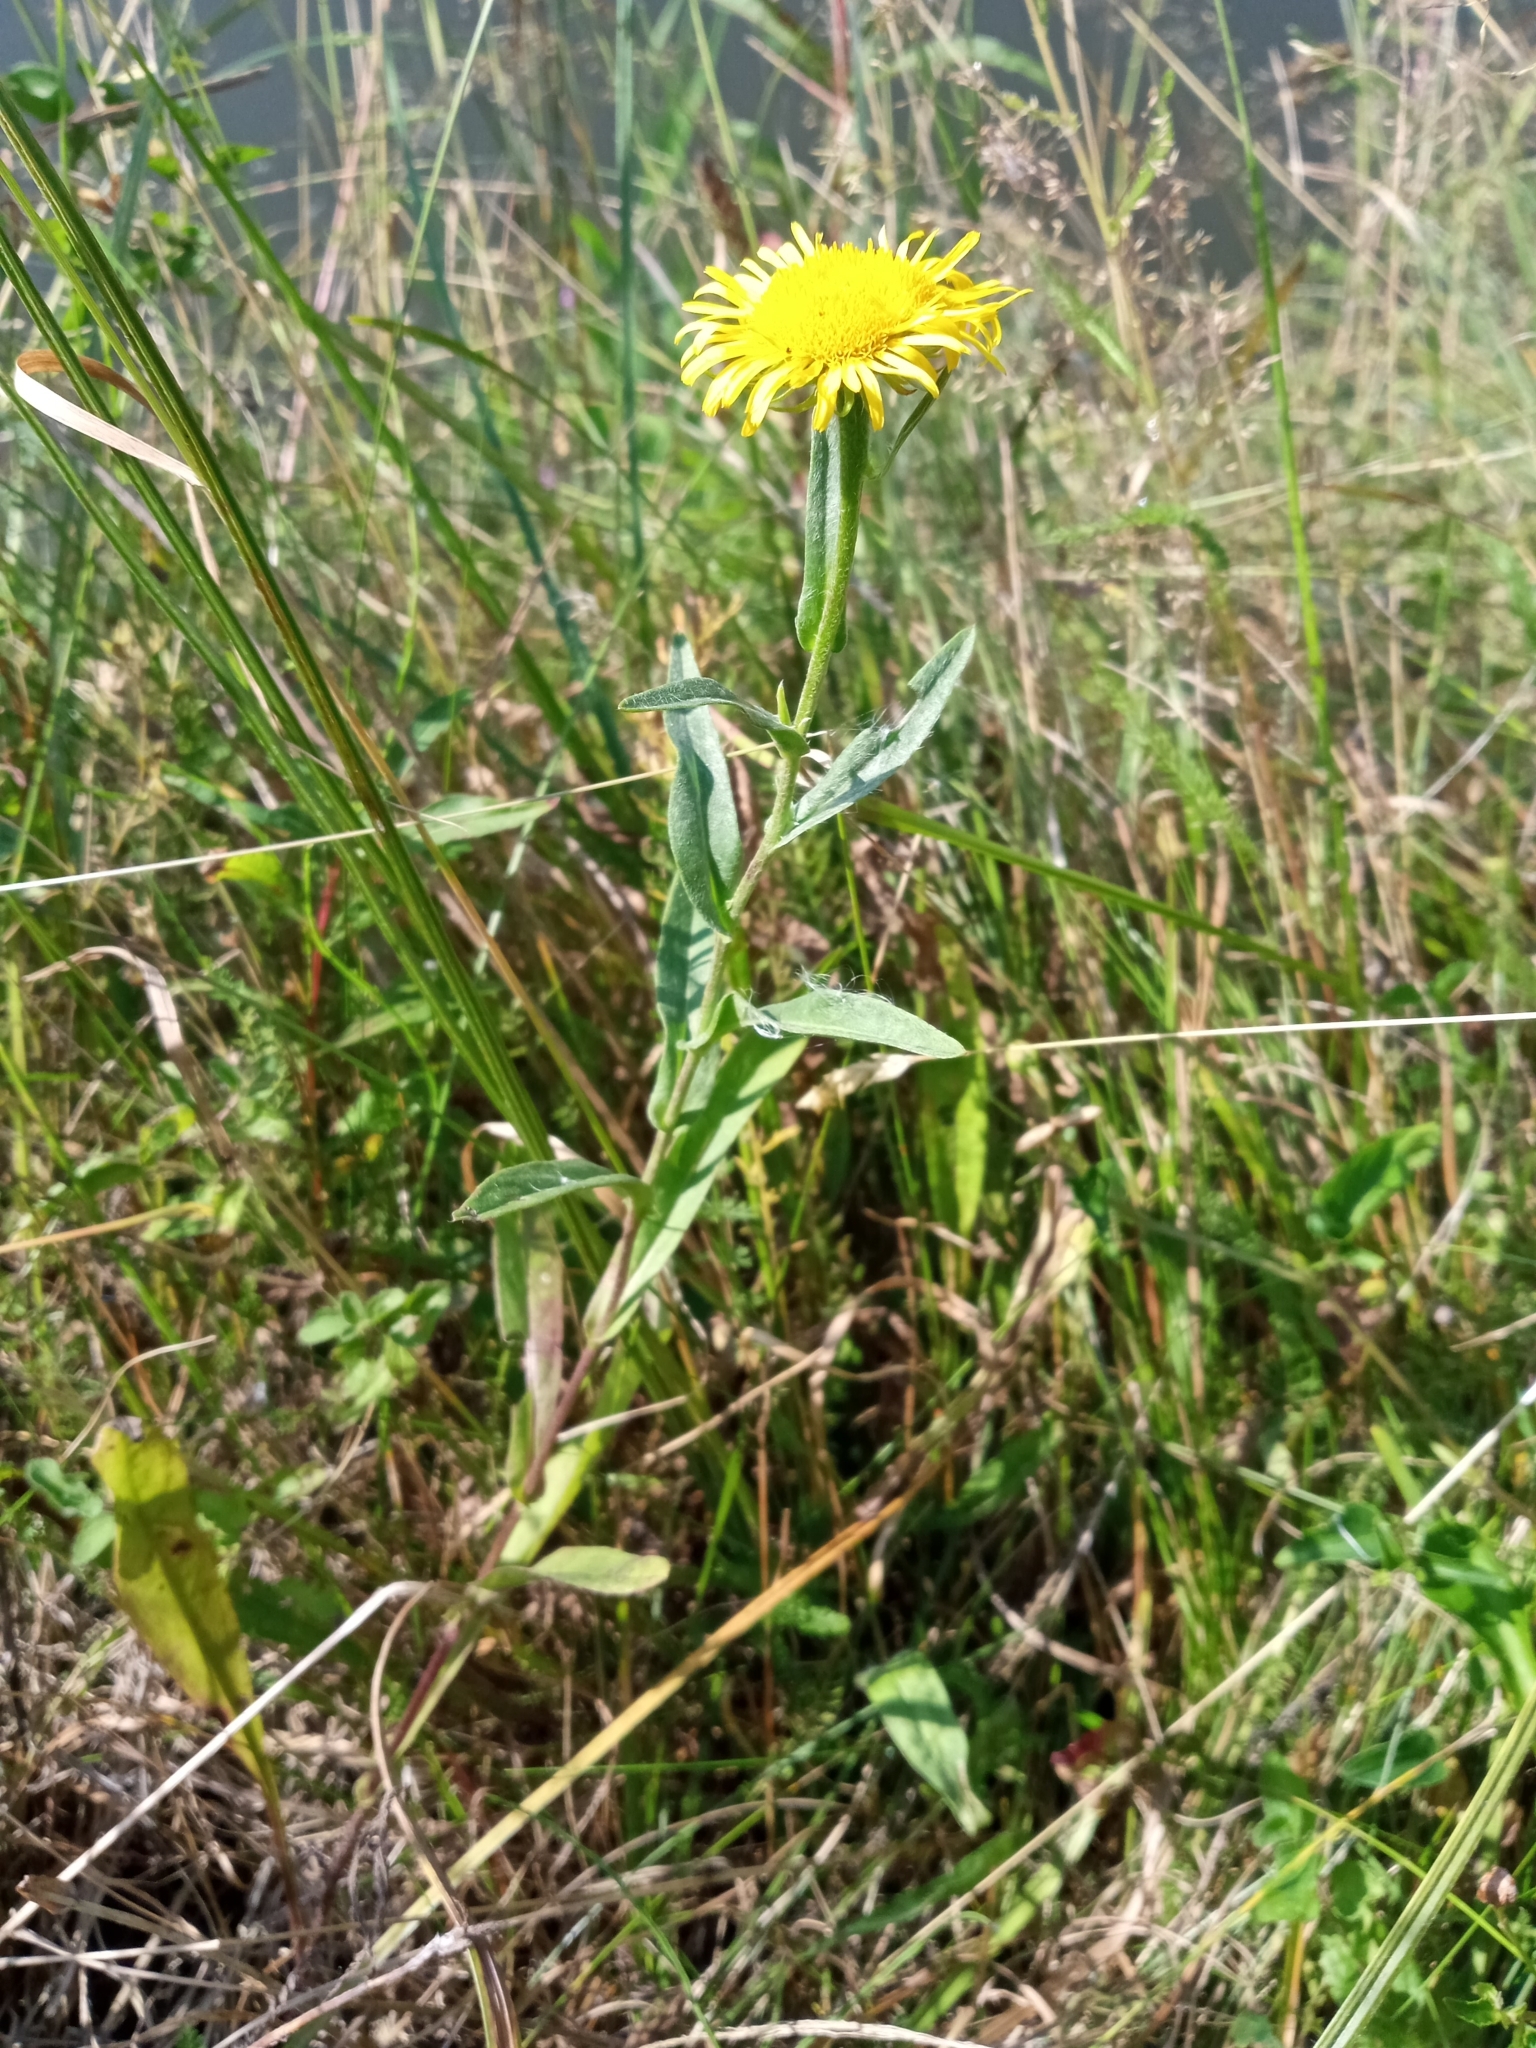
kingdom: Plantae
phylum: Tracheophyta
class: Magnoliopsida
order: Asterales
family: Asteraceae
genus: Pentanema
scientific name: Pentanema britannicum
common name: British elecampane
